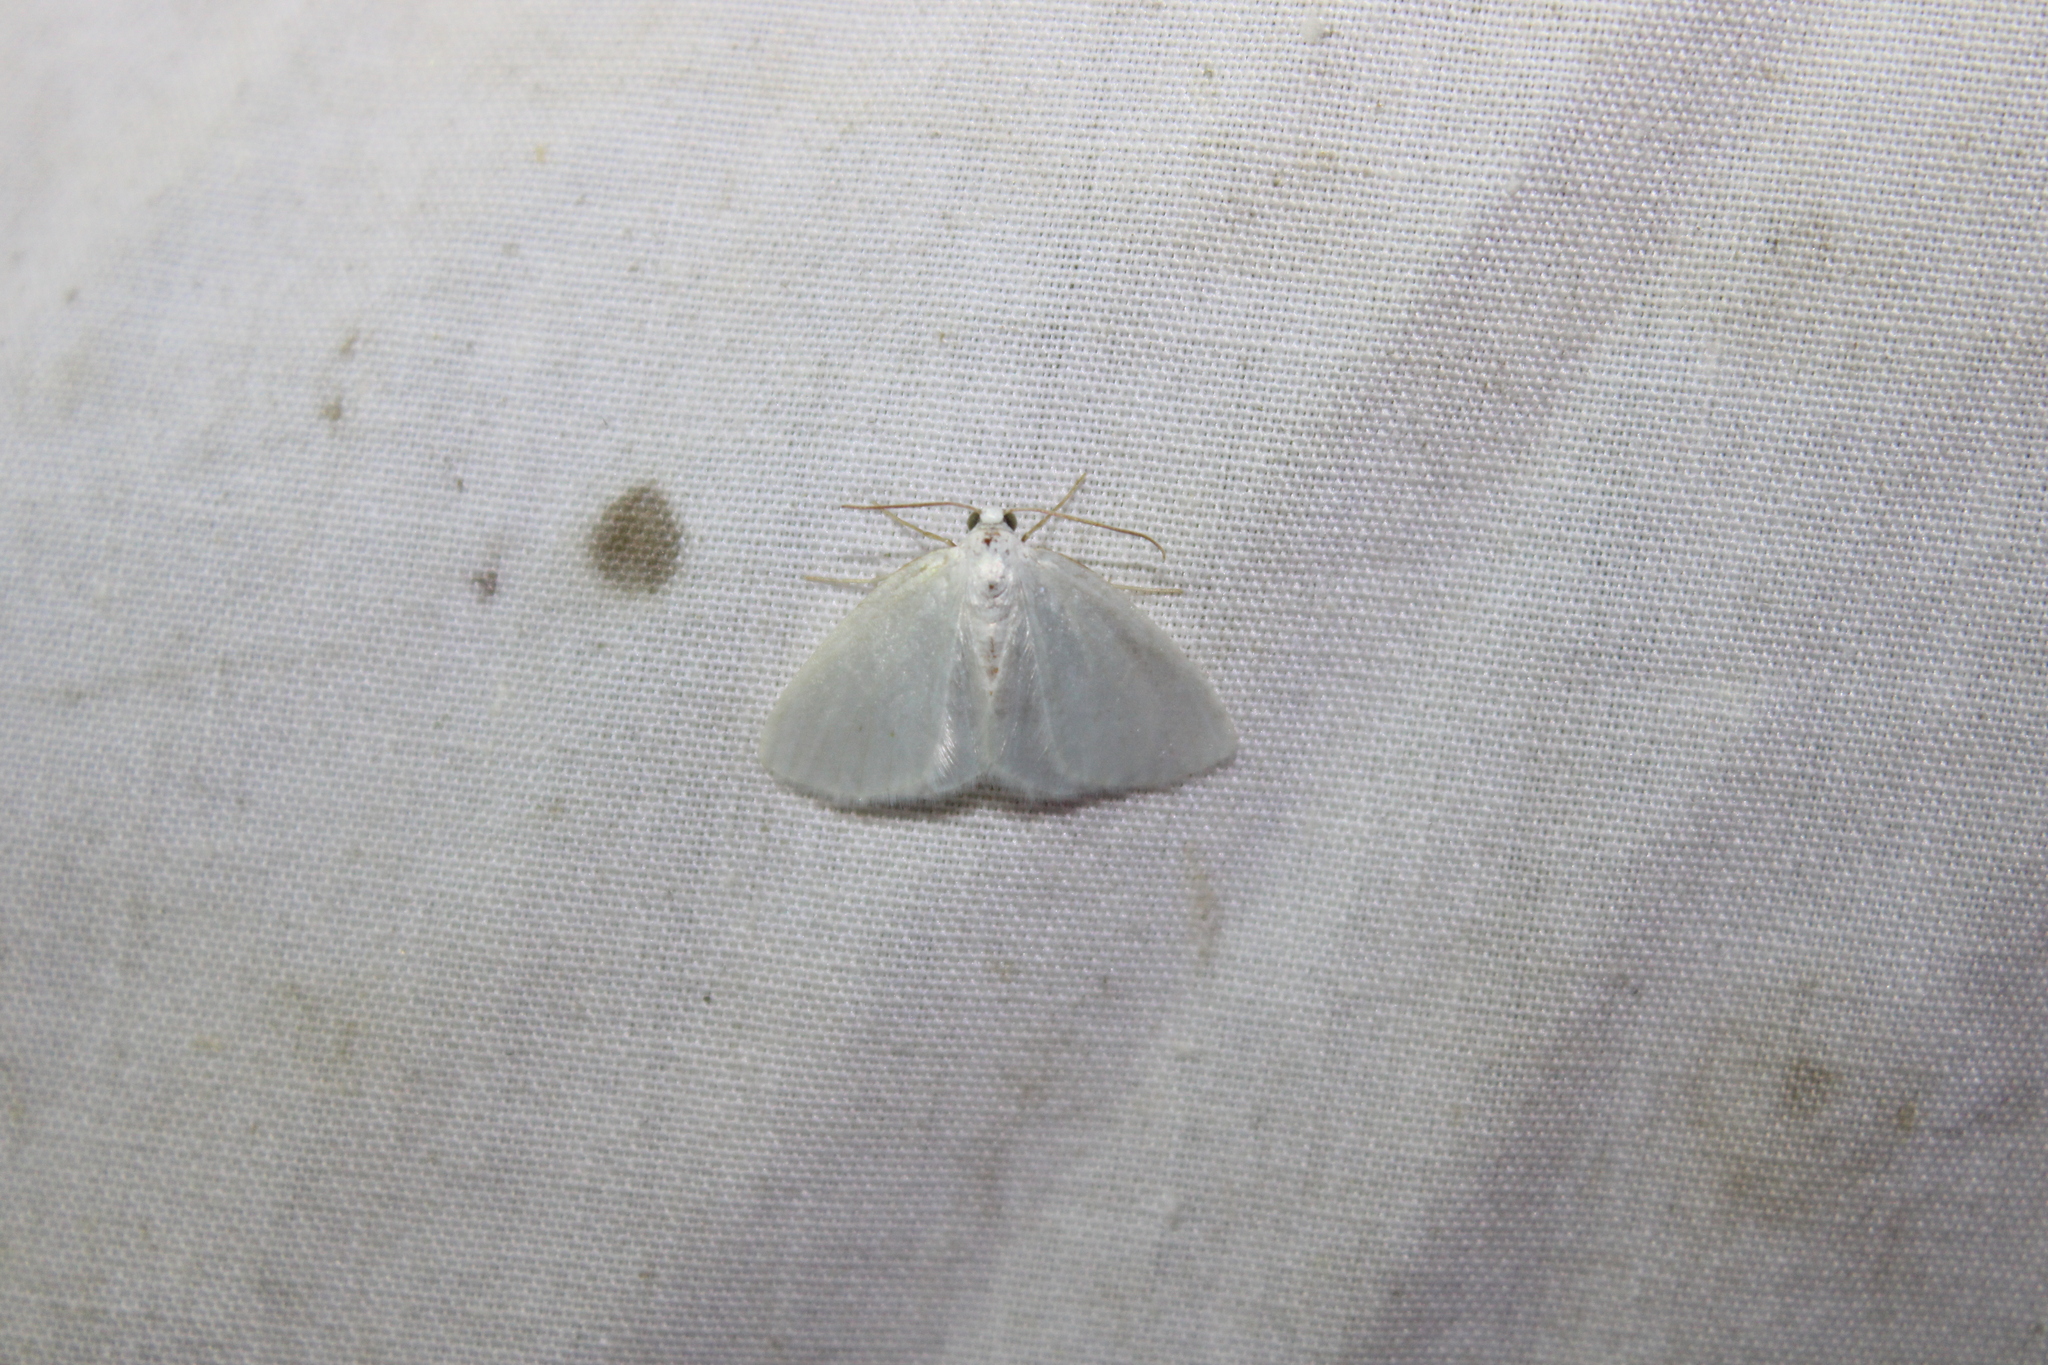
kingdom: Animalia
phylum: Arthropoda
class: Insecta
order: Lepidoptera
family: Geometridae
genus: Lomographa
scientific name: Lomographa vestaliata
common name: White spring moth
